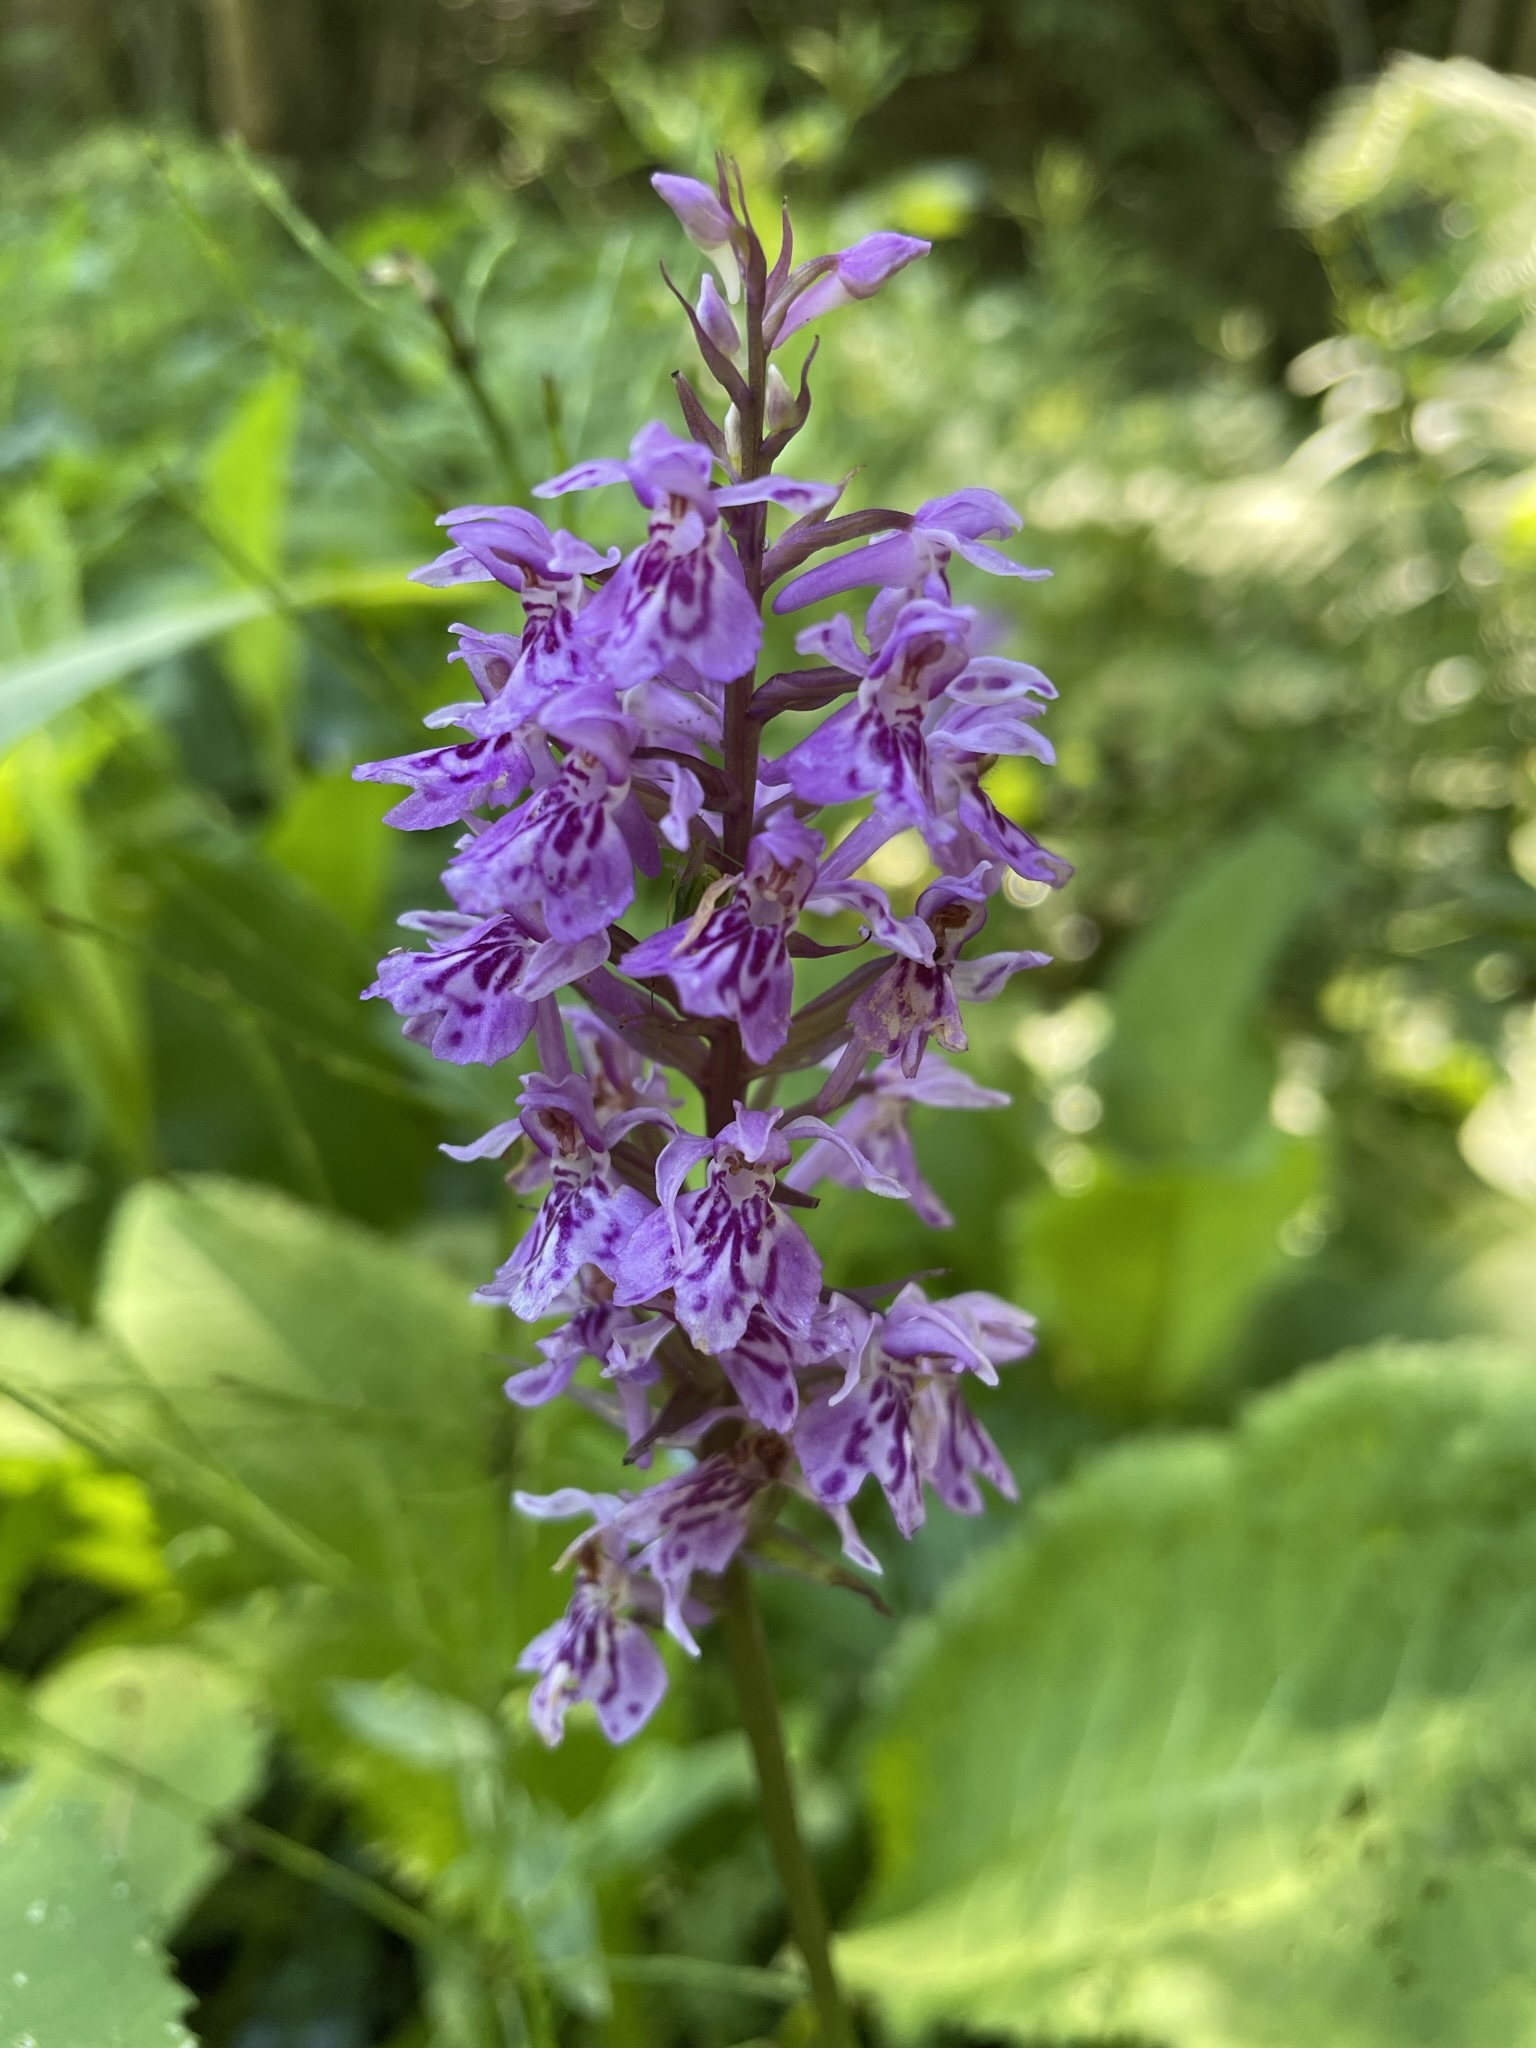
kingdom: Plantae
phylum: Tracheophyta
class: Liliopsida
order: Asparagales
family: Orchidaceae
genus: Dactylorhiza
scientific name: Dactylorhiza maculata
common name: Heath spotted-orchid
